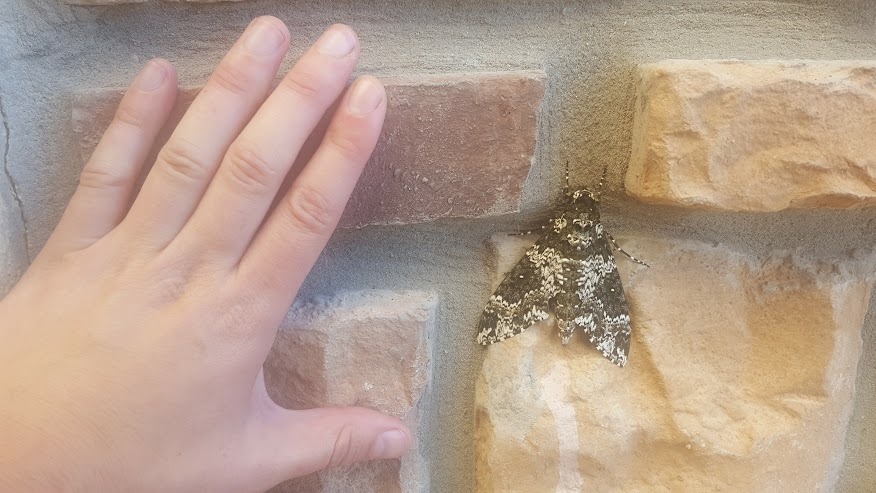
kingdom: Animalia
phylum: Arthropoda
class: Insecta
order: Lepidoptera
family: Sphingidae
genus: Manduca
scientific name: Manduca rustica
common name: Rustic sphinx
